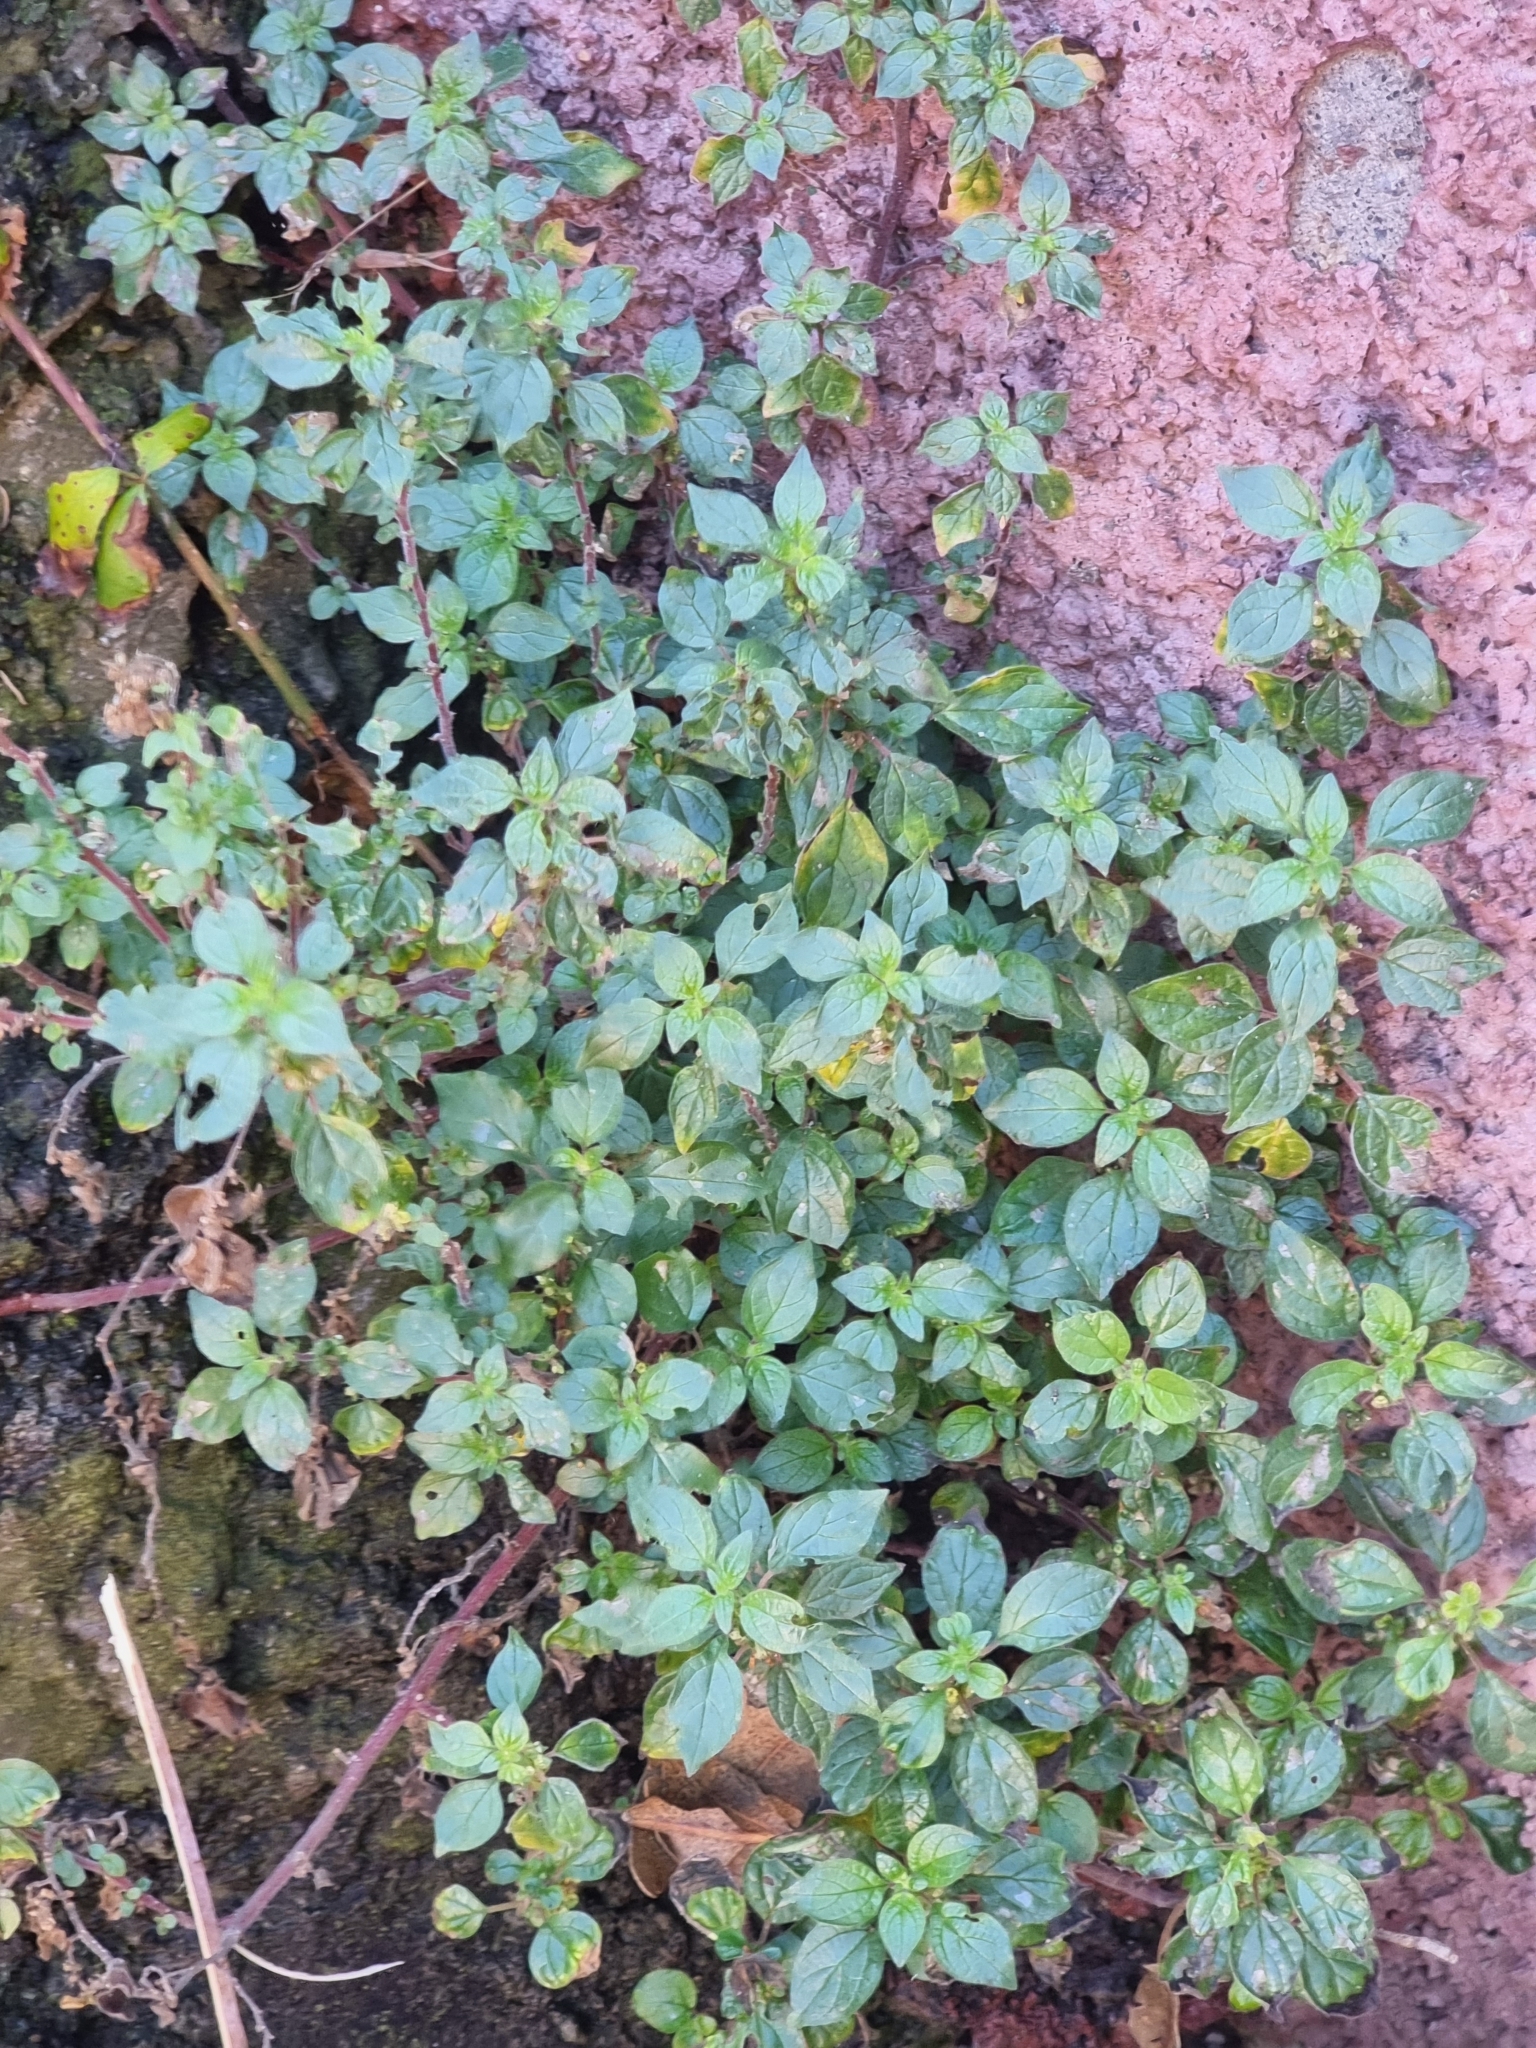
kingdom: Plantae
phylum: Tracheophyta
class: Magnoliopsida
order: Rosales
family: Urticaceae
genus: Parietaria
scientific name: Parietaria judaica
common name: Pellitory-of-the-wall
